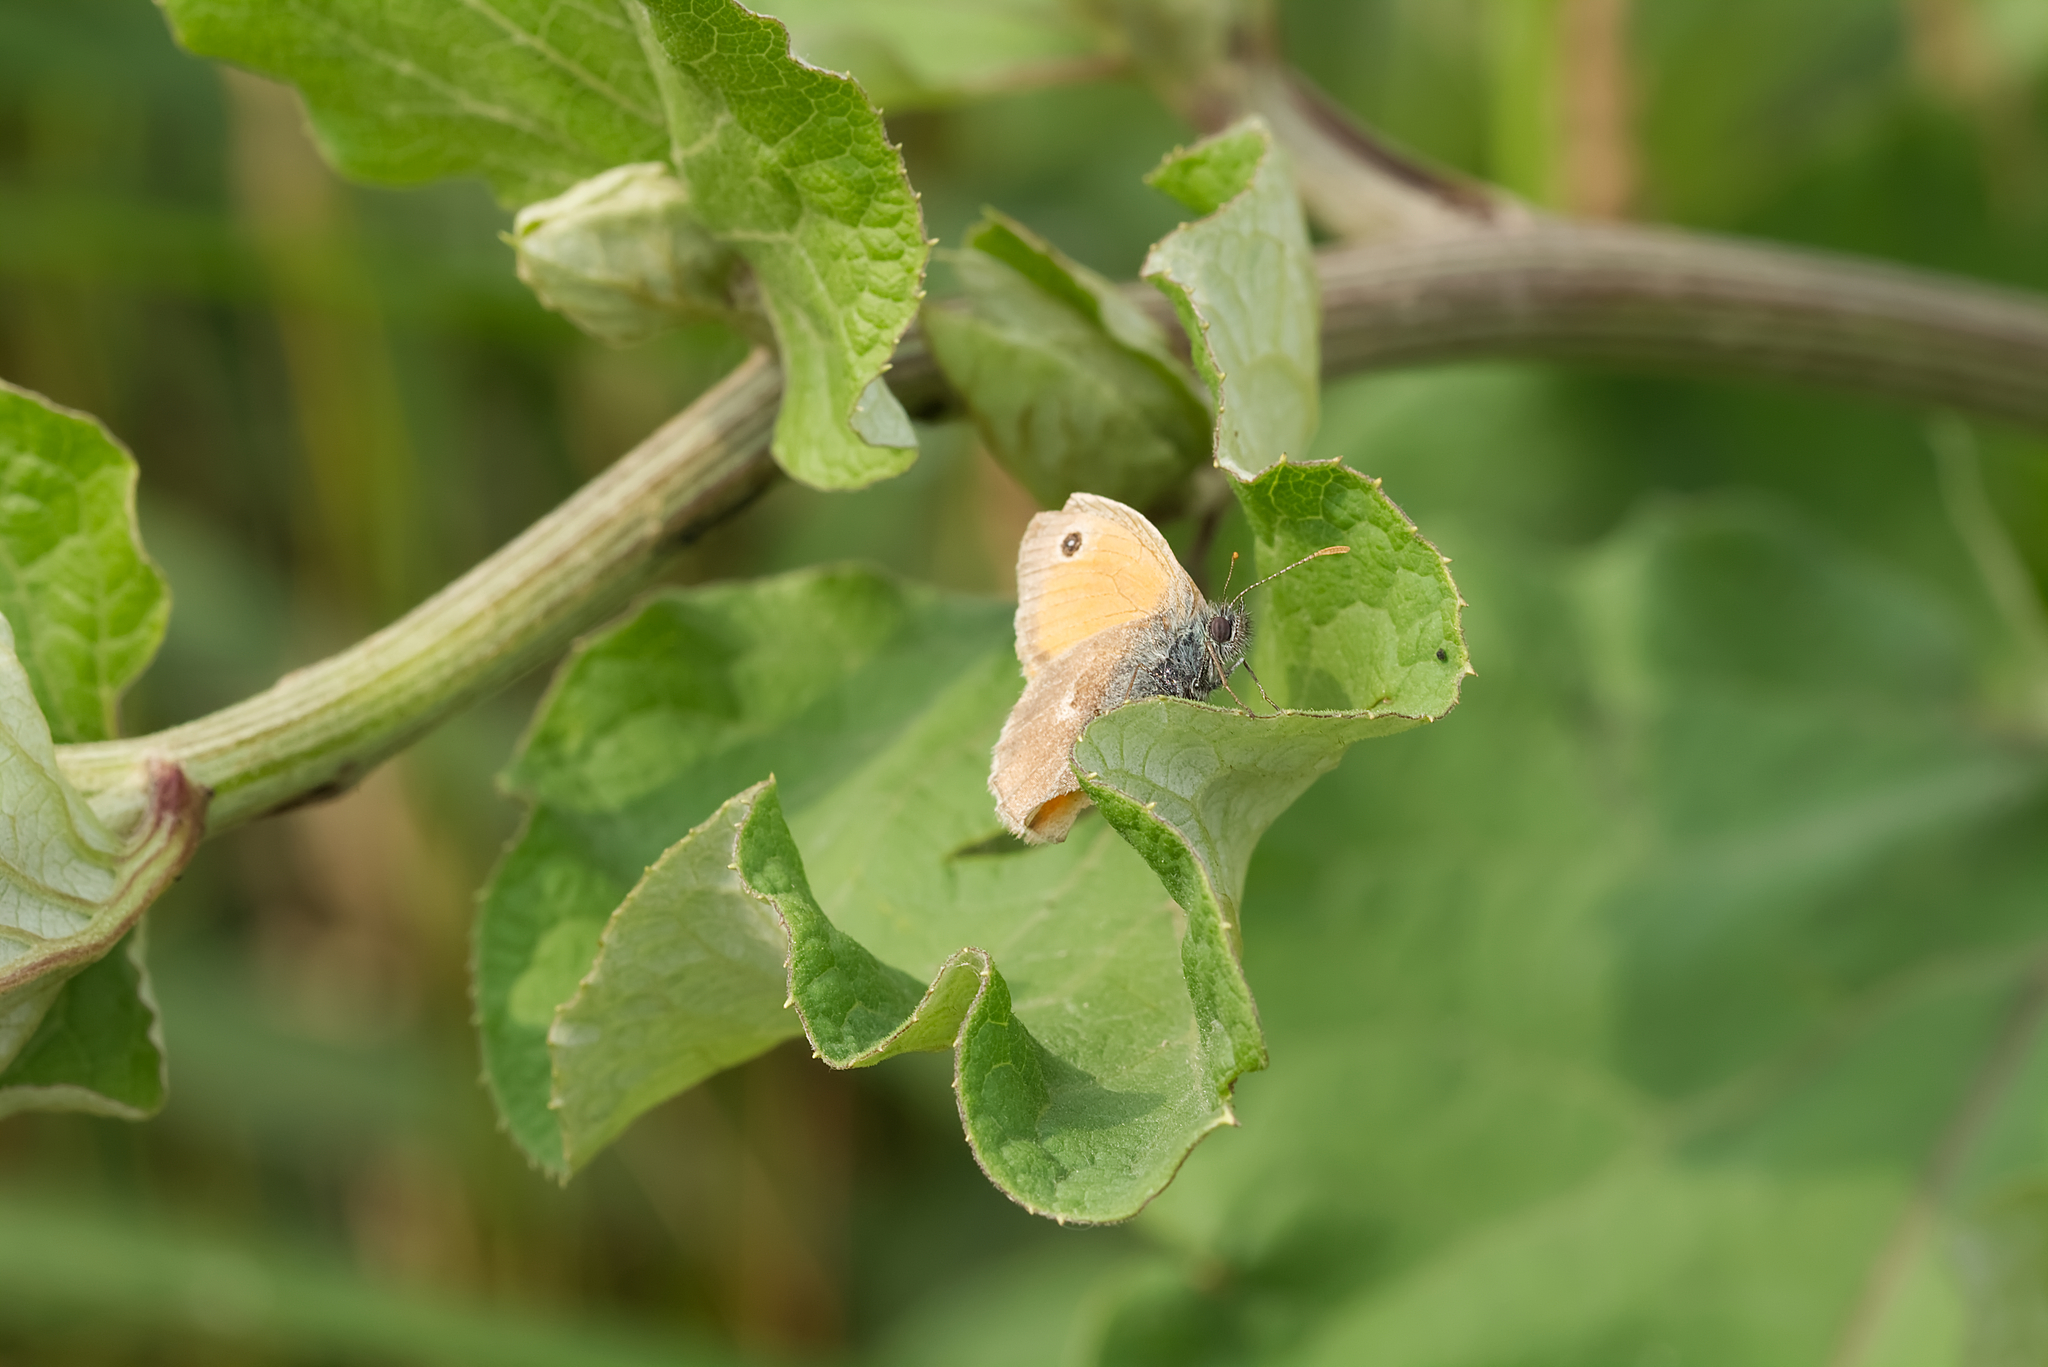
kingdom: Animalia
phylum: Arthropoda
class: Insecta
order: Lepidoptera
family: Nymphalidae
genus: Coenonympha
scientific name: Coenonympha pamphilus
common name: Small heath
